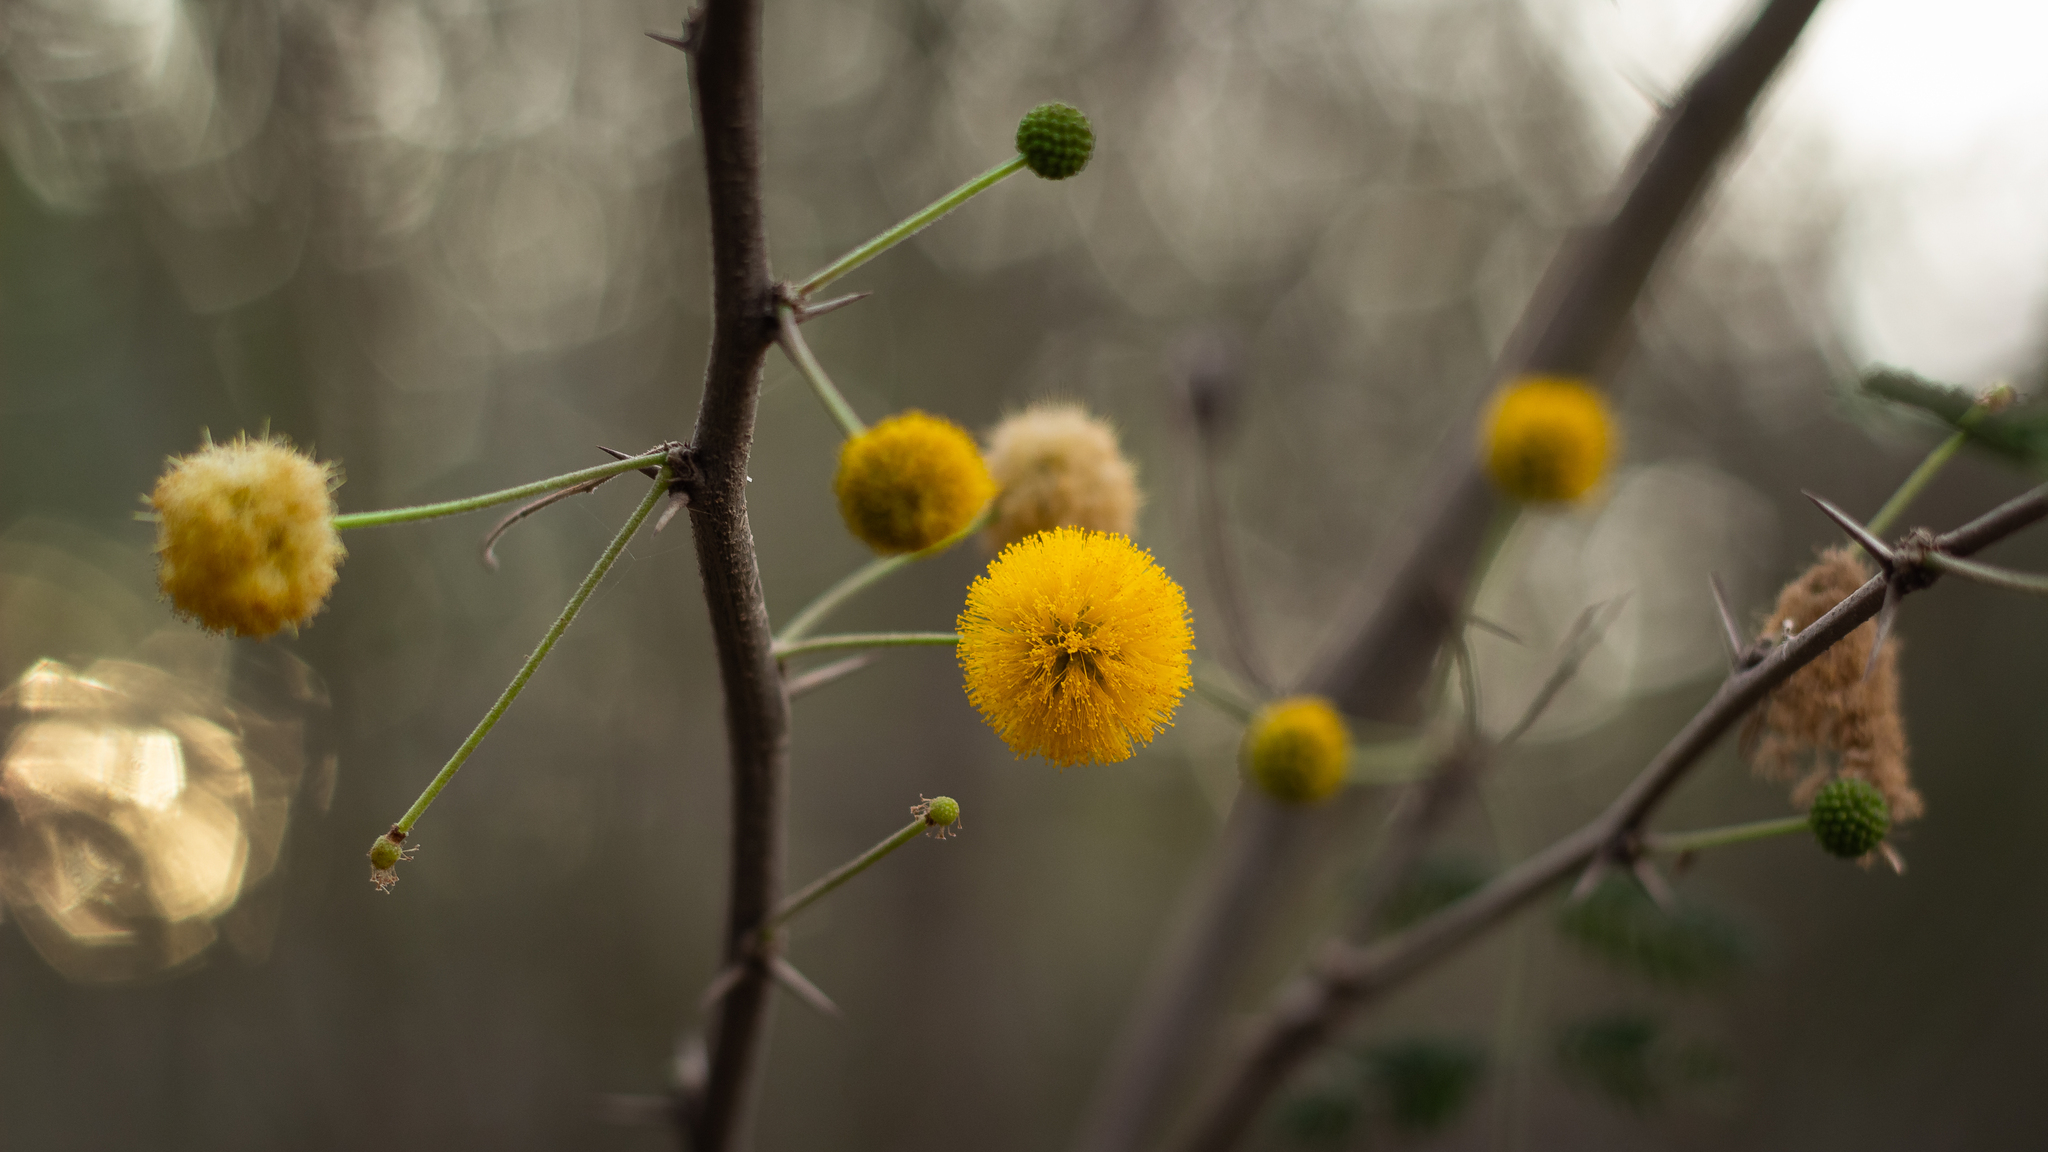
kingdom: Plantae
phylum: Tracheophyta
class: Magnoliopsida
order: Fabales
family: Fabaceae
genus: Vachellia
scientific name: Vachellia farnesiana
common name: Sweet acacia
